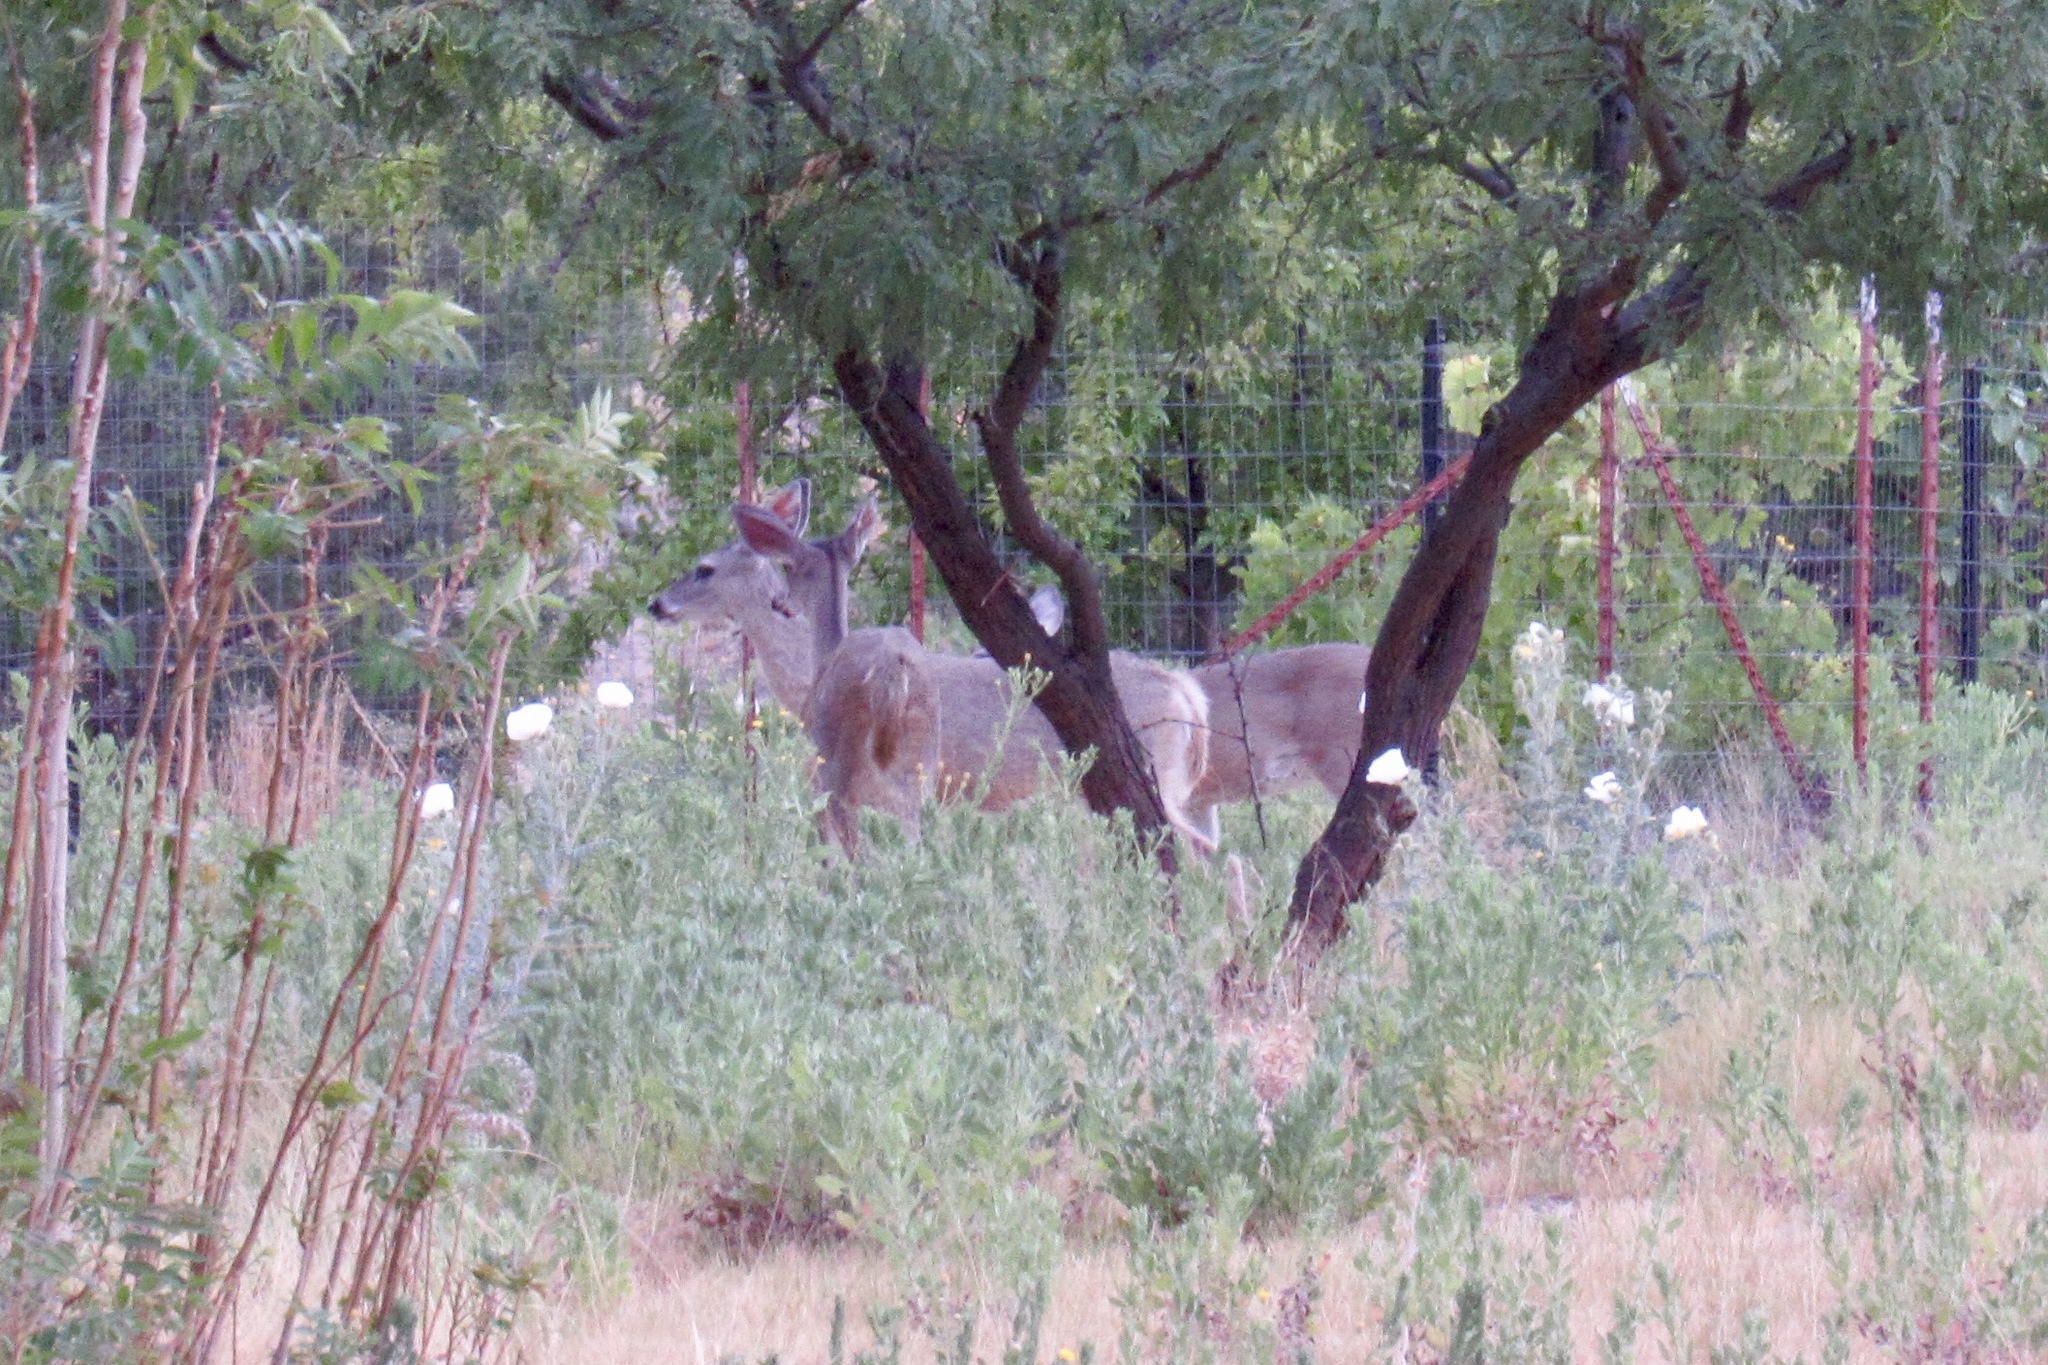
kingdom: Animalia
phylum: Chordata
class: Mammalia
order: Artiodactyla
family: Cervidae
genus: Odocoileus
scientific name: Odocoileus virginianus
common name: White-tailed deer
